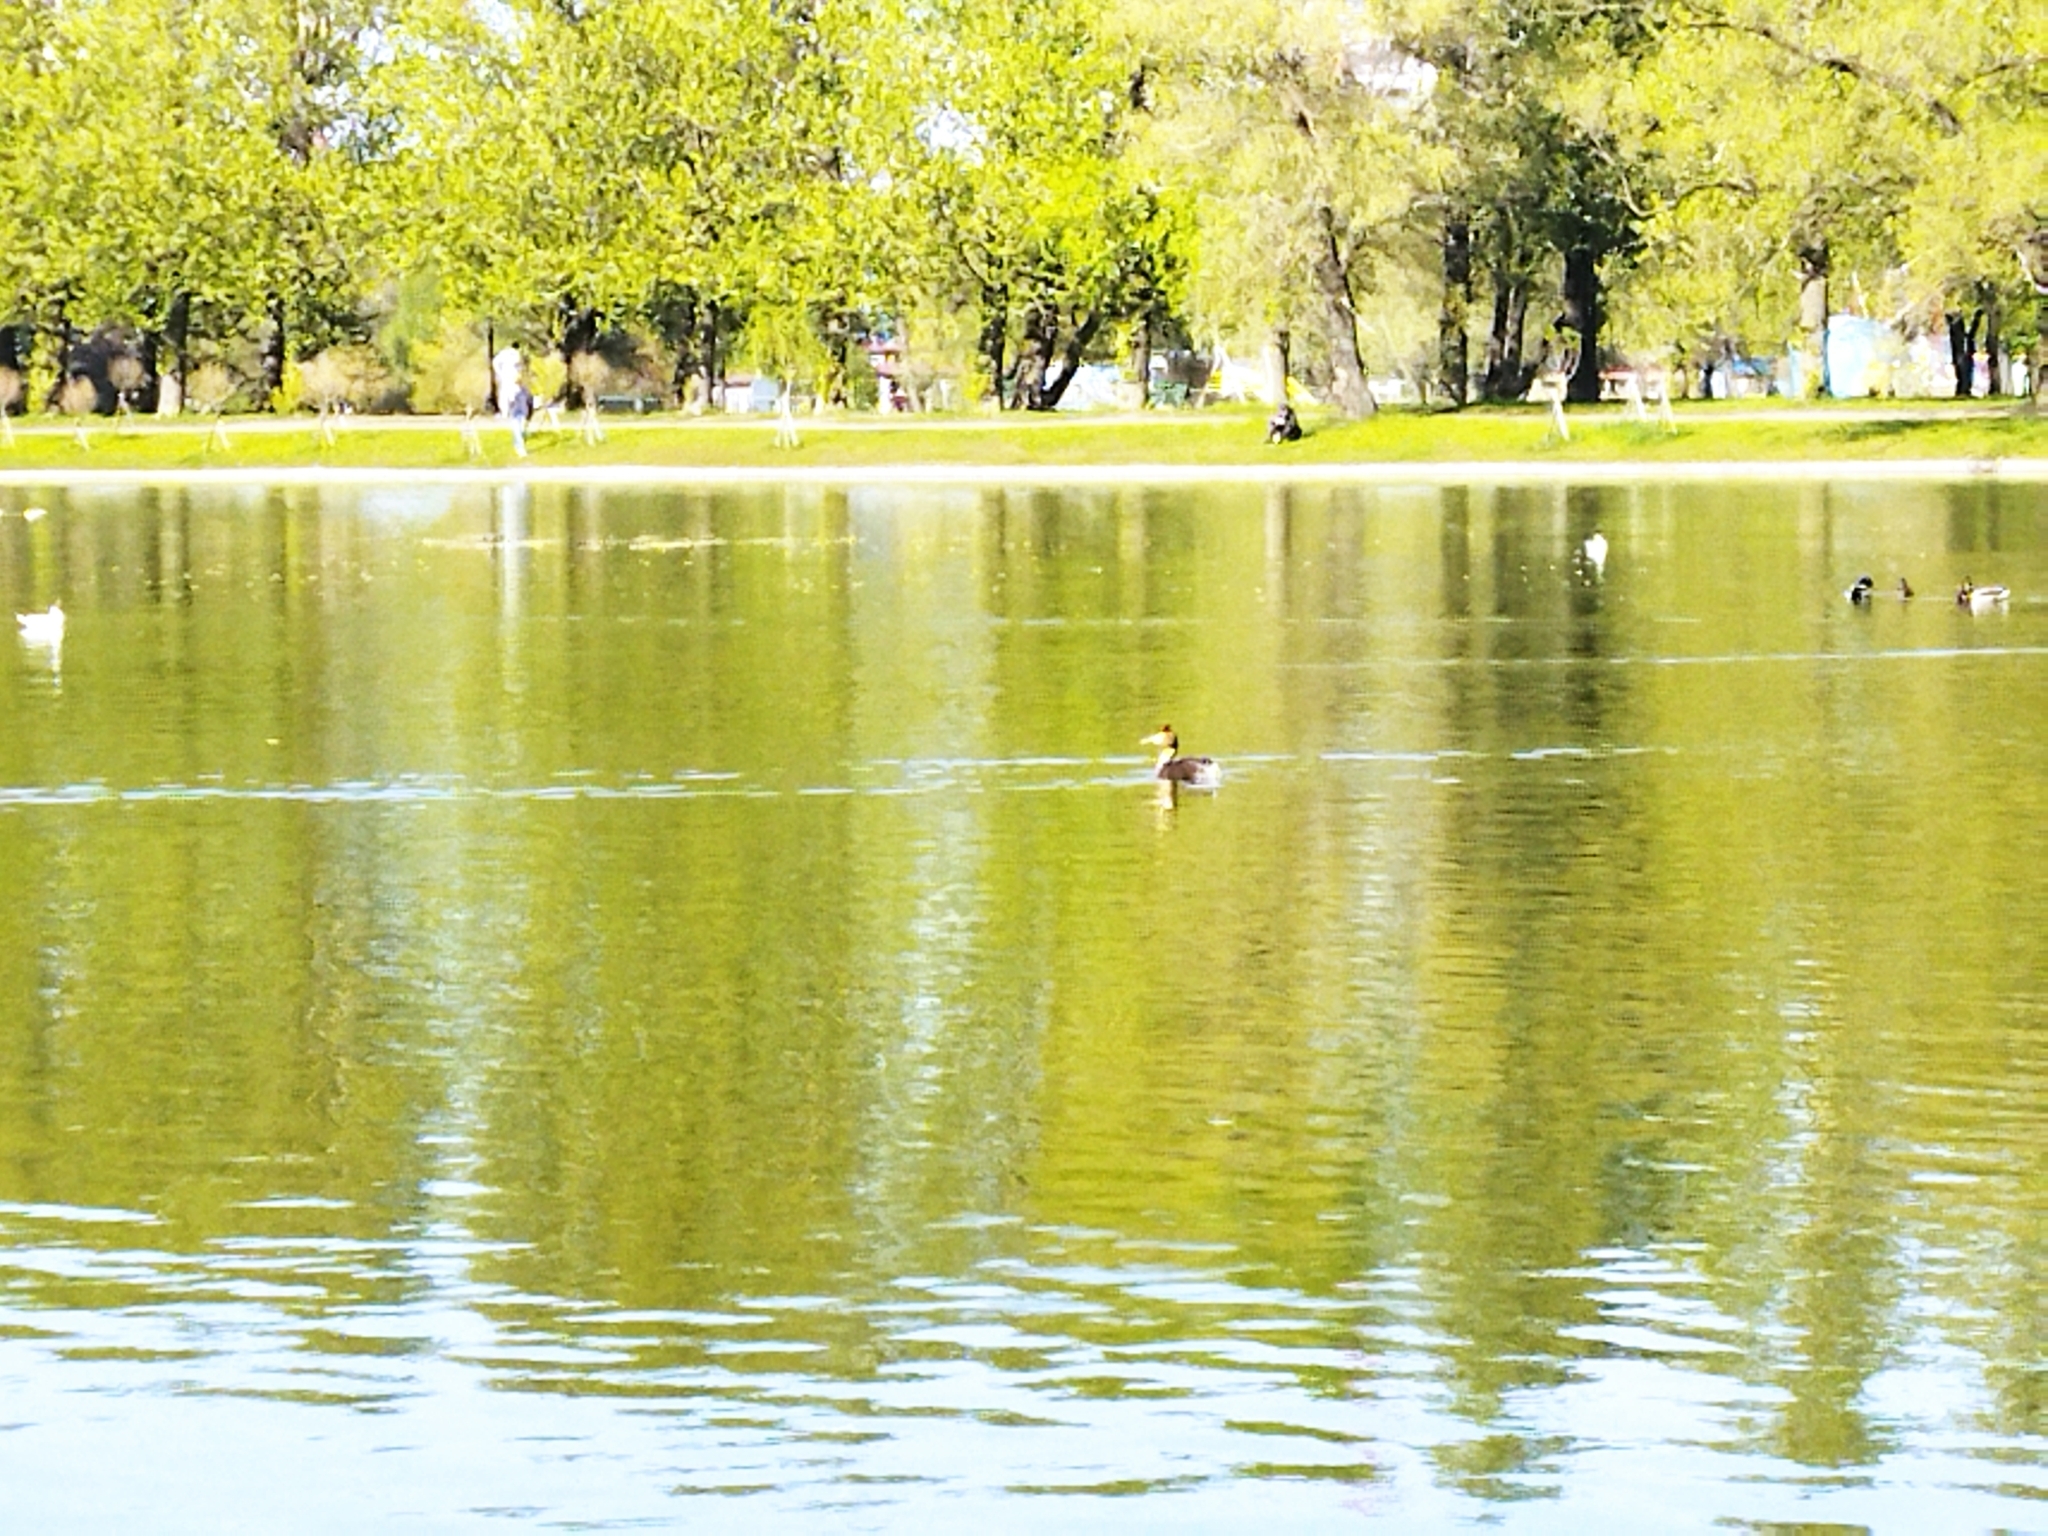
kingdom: Animalia
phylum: Chordata
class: Aves
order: Podicipediformes
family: Podicipedidae
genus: Podiceps
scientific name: Podiceps cristatus
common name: Great crested grebe
